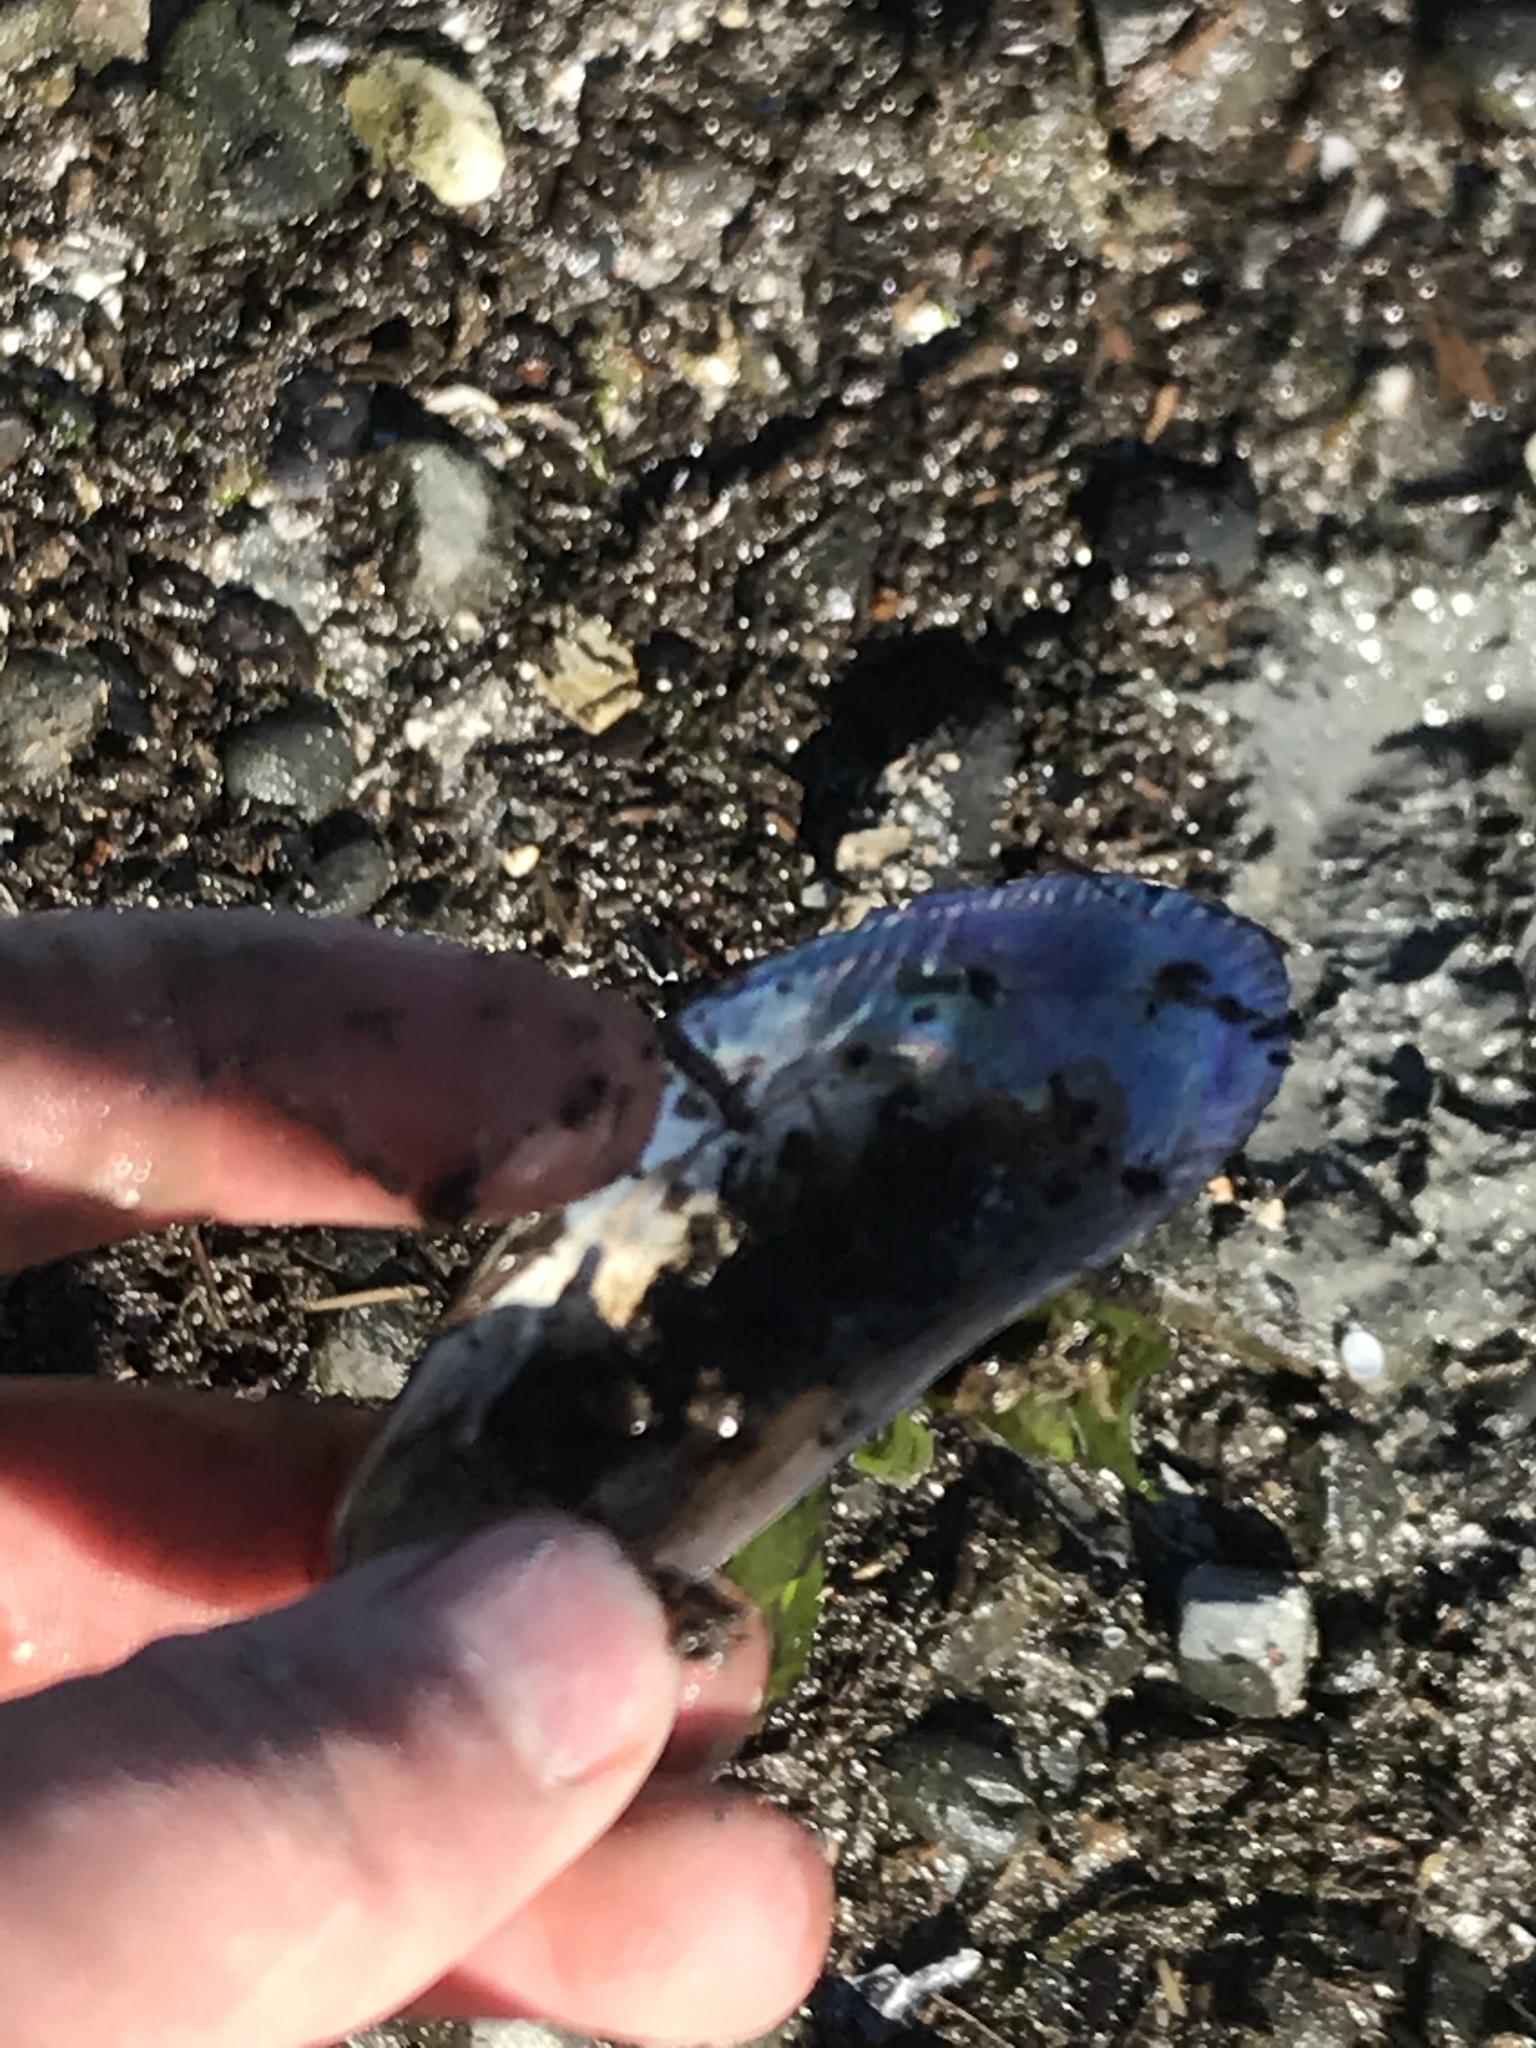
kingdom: Animalia
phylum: Mollusca
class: Bivalvia
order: Mytilida
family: Mytilidae
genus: Geukensia
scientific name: Geukensia demissa
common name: Ribbed mussel
